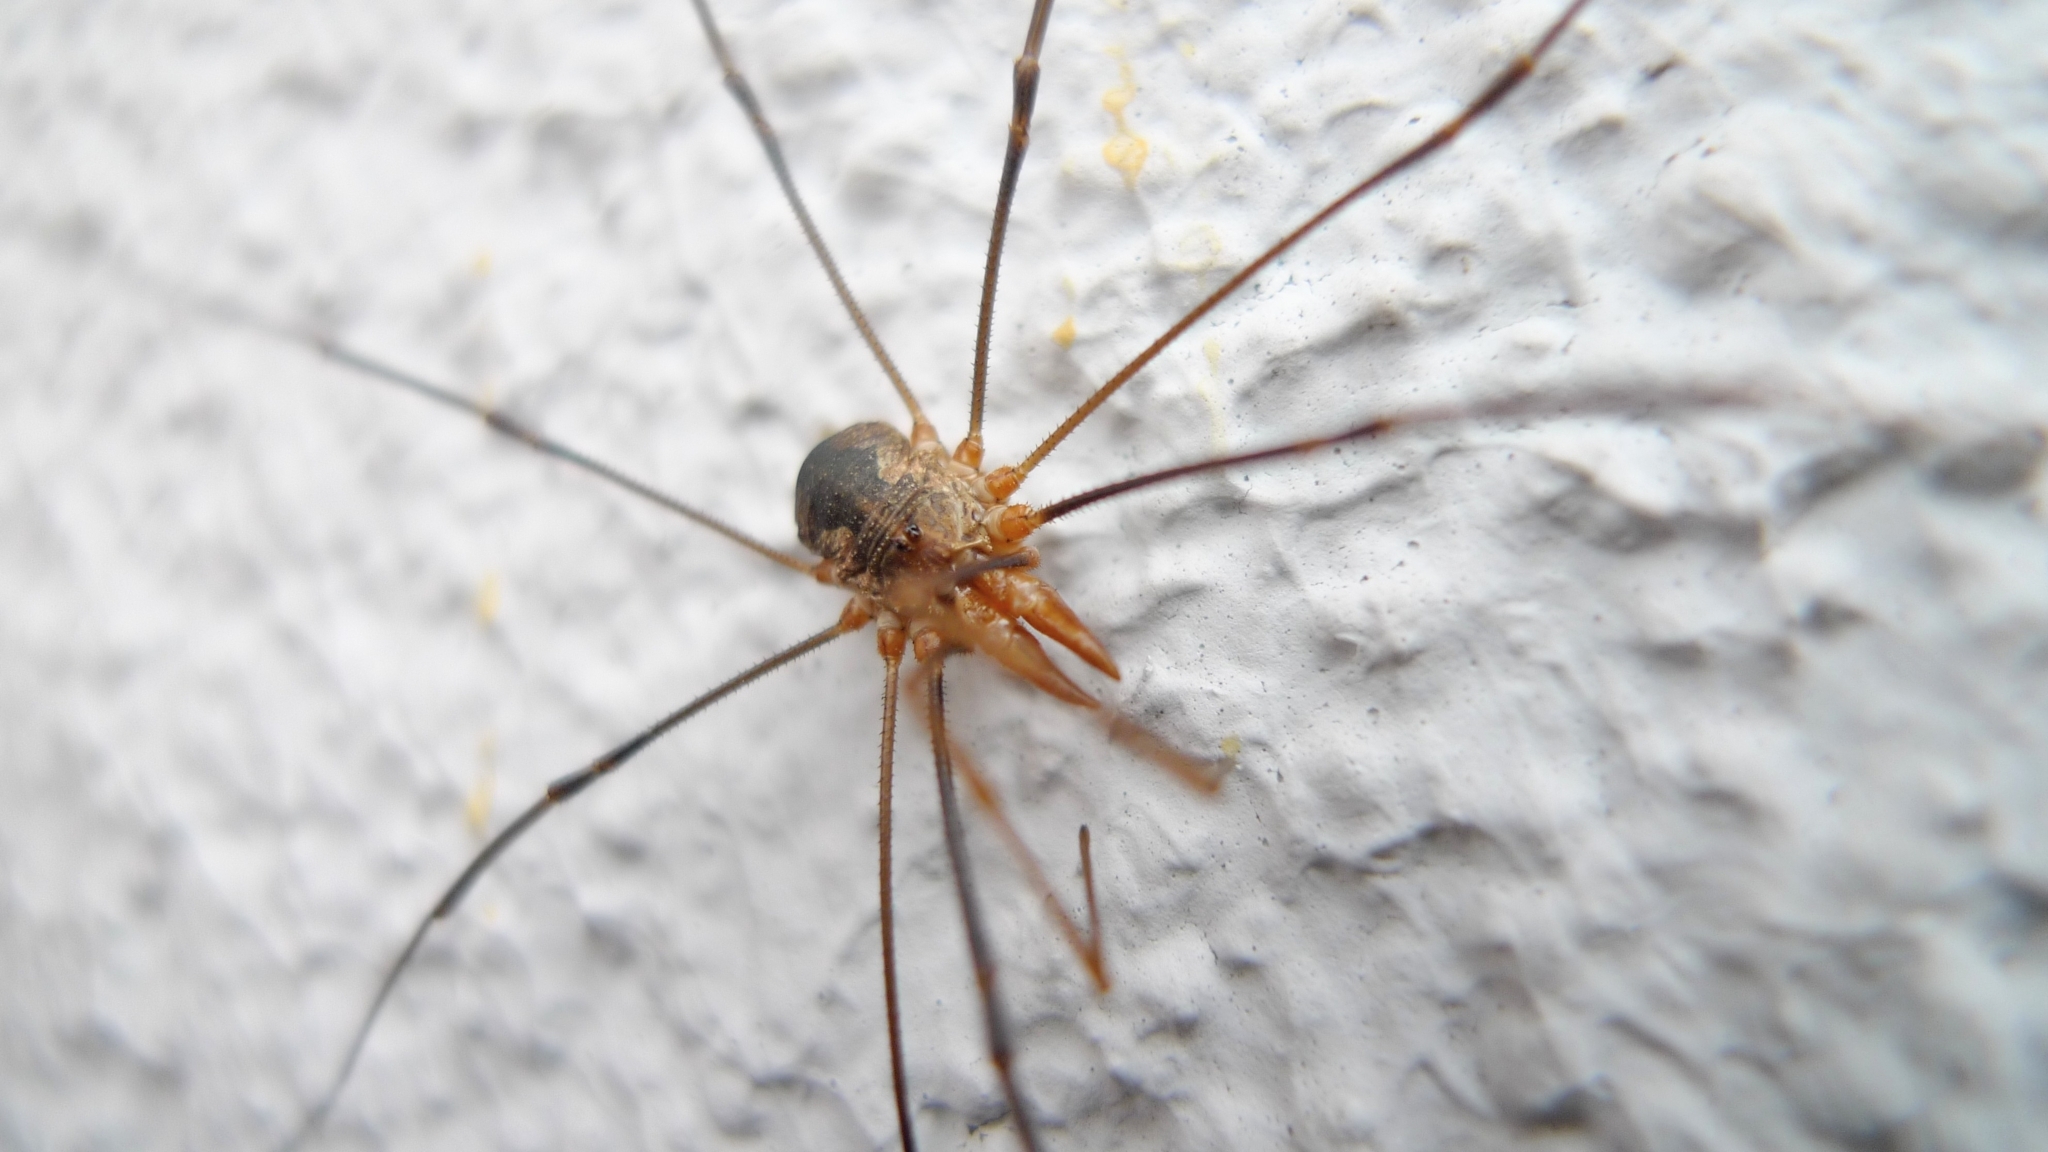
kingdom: Animalia
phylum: Arthropoda
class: Arachnida
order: Opiliones
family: Phalangiidae
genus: Phalangium
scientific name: Phalangium opilio
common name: Daddy longleg
